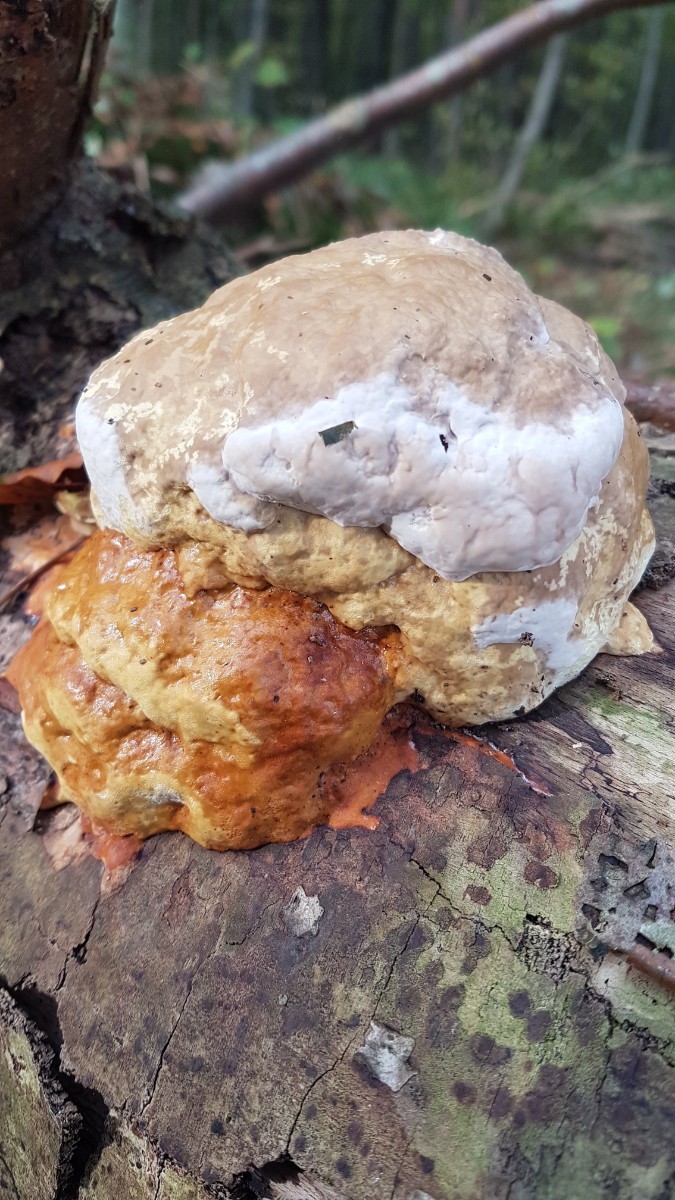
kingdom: Fungi
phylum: Basidiomycota
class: Agaricomycetes
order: Polyporales
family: Fomitopsidaceae
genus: Fomitopsis
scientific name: Fomitopsis pinicola
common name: Red-belted bracket
